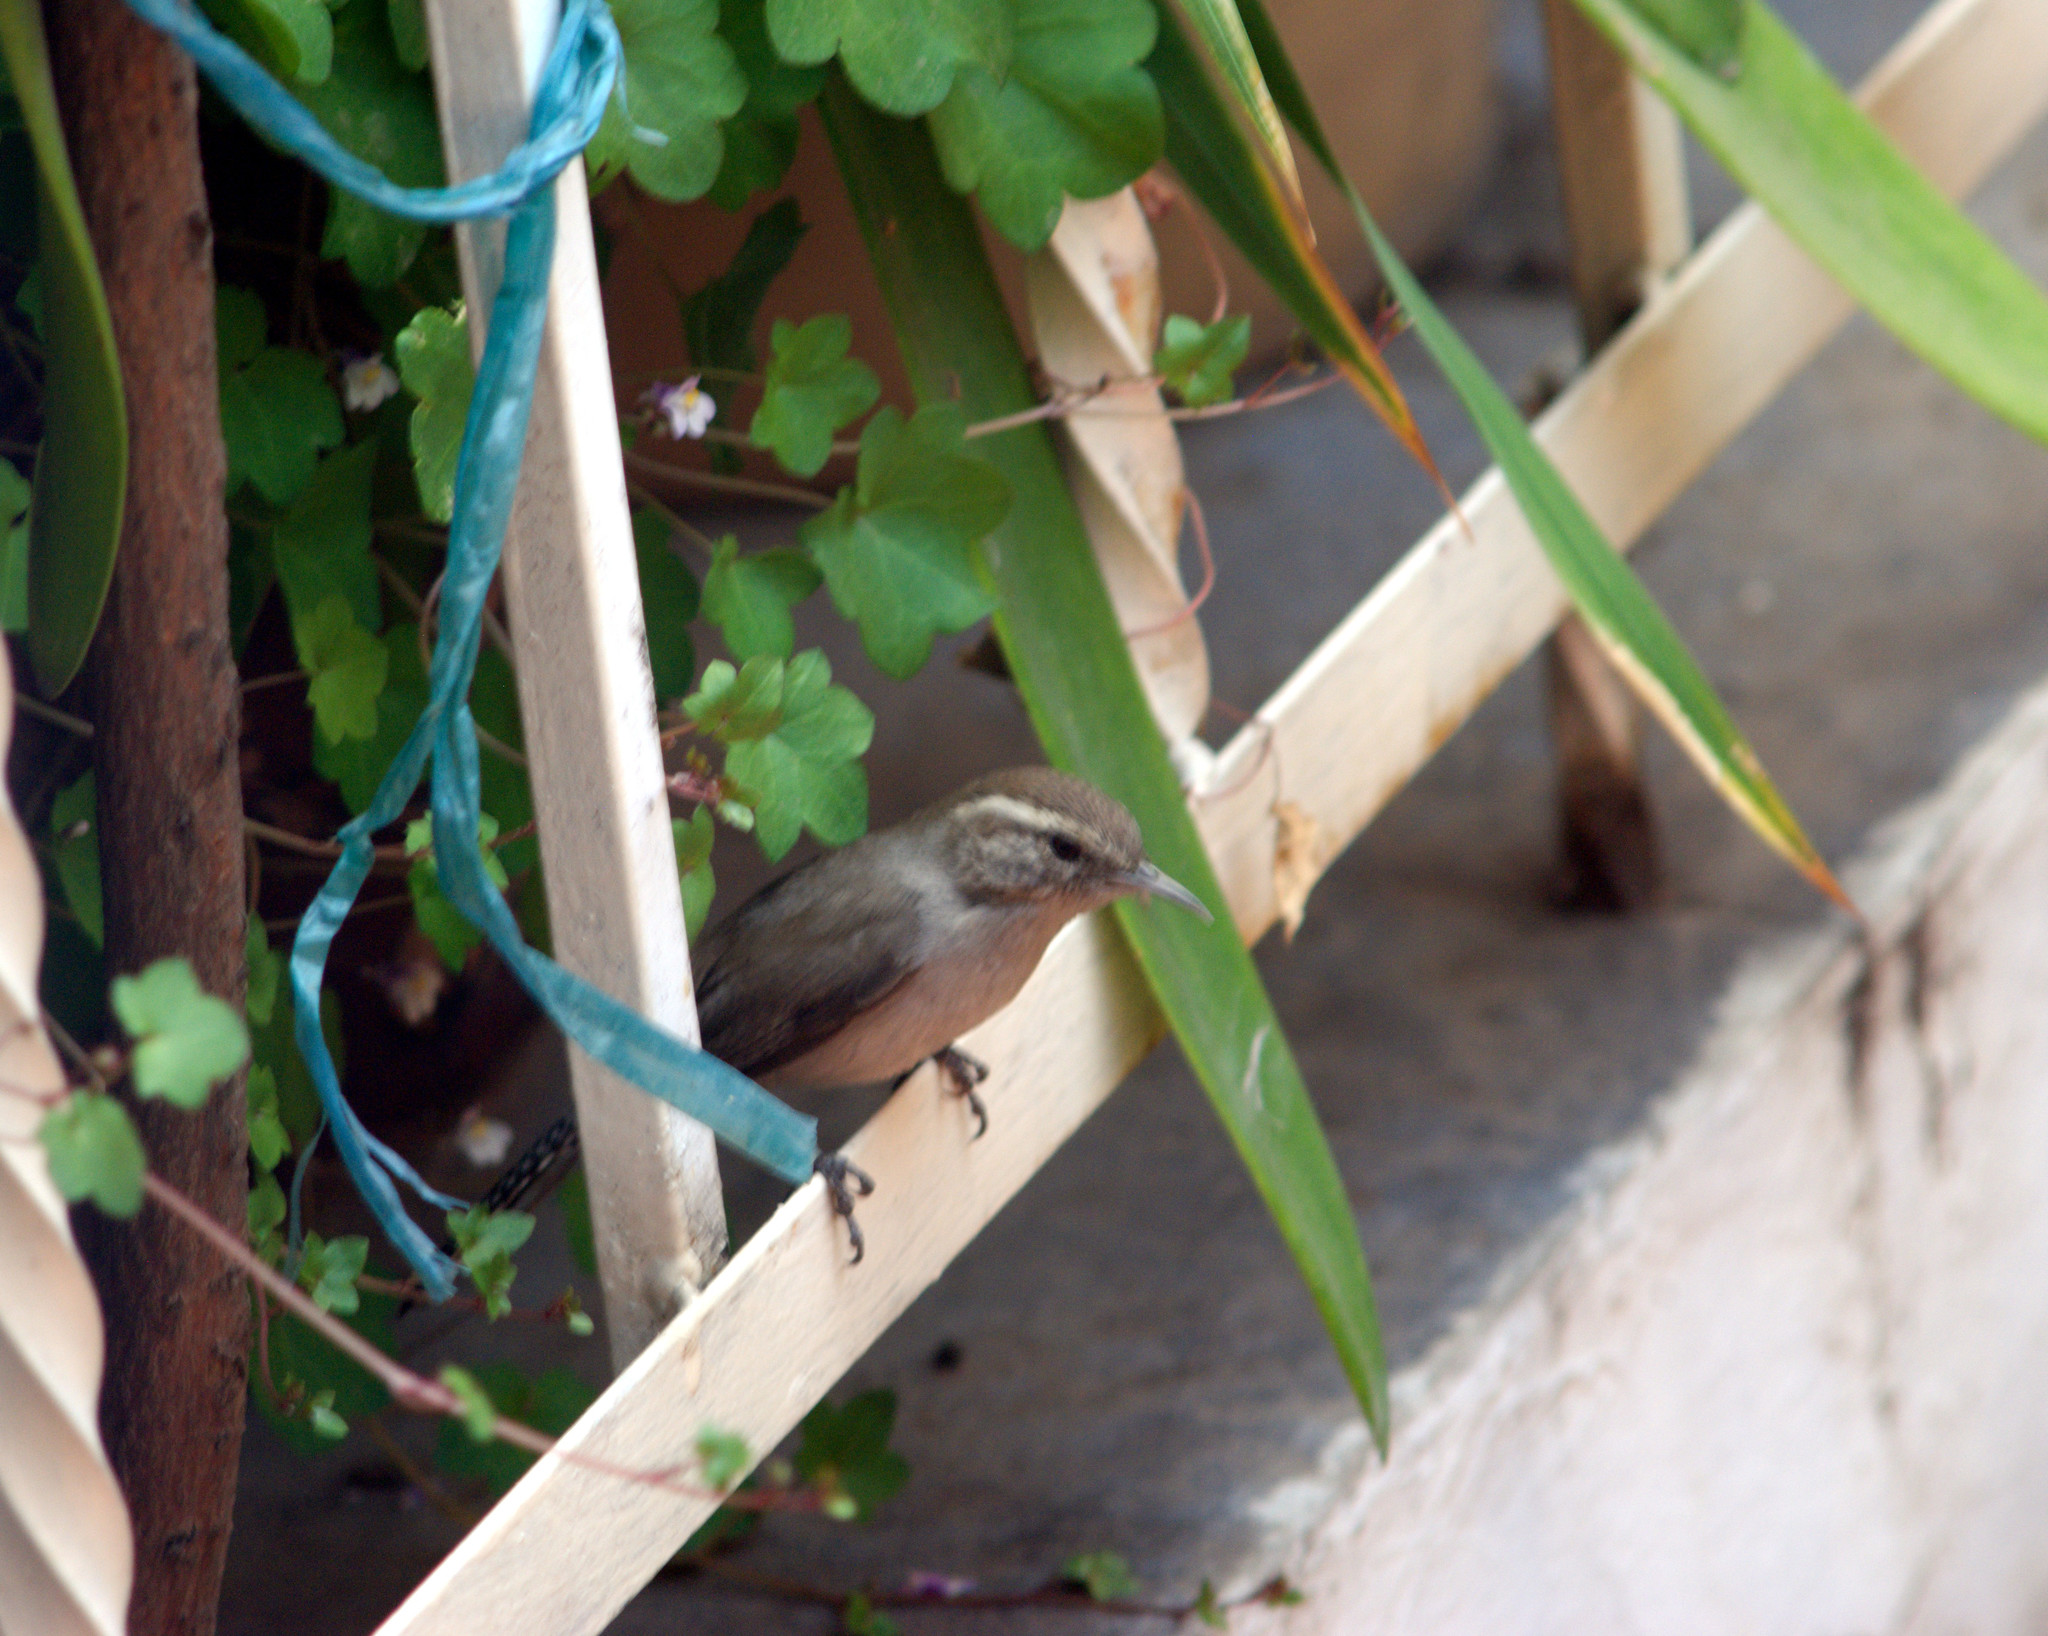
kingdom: Animalia
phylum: Chordata
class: Aves
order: Passeriformes
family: Troglodytidae
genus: Thryomanes
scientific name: Thryomanes bewickii
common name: Bewick's wren
